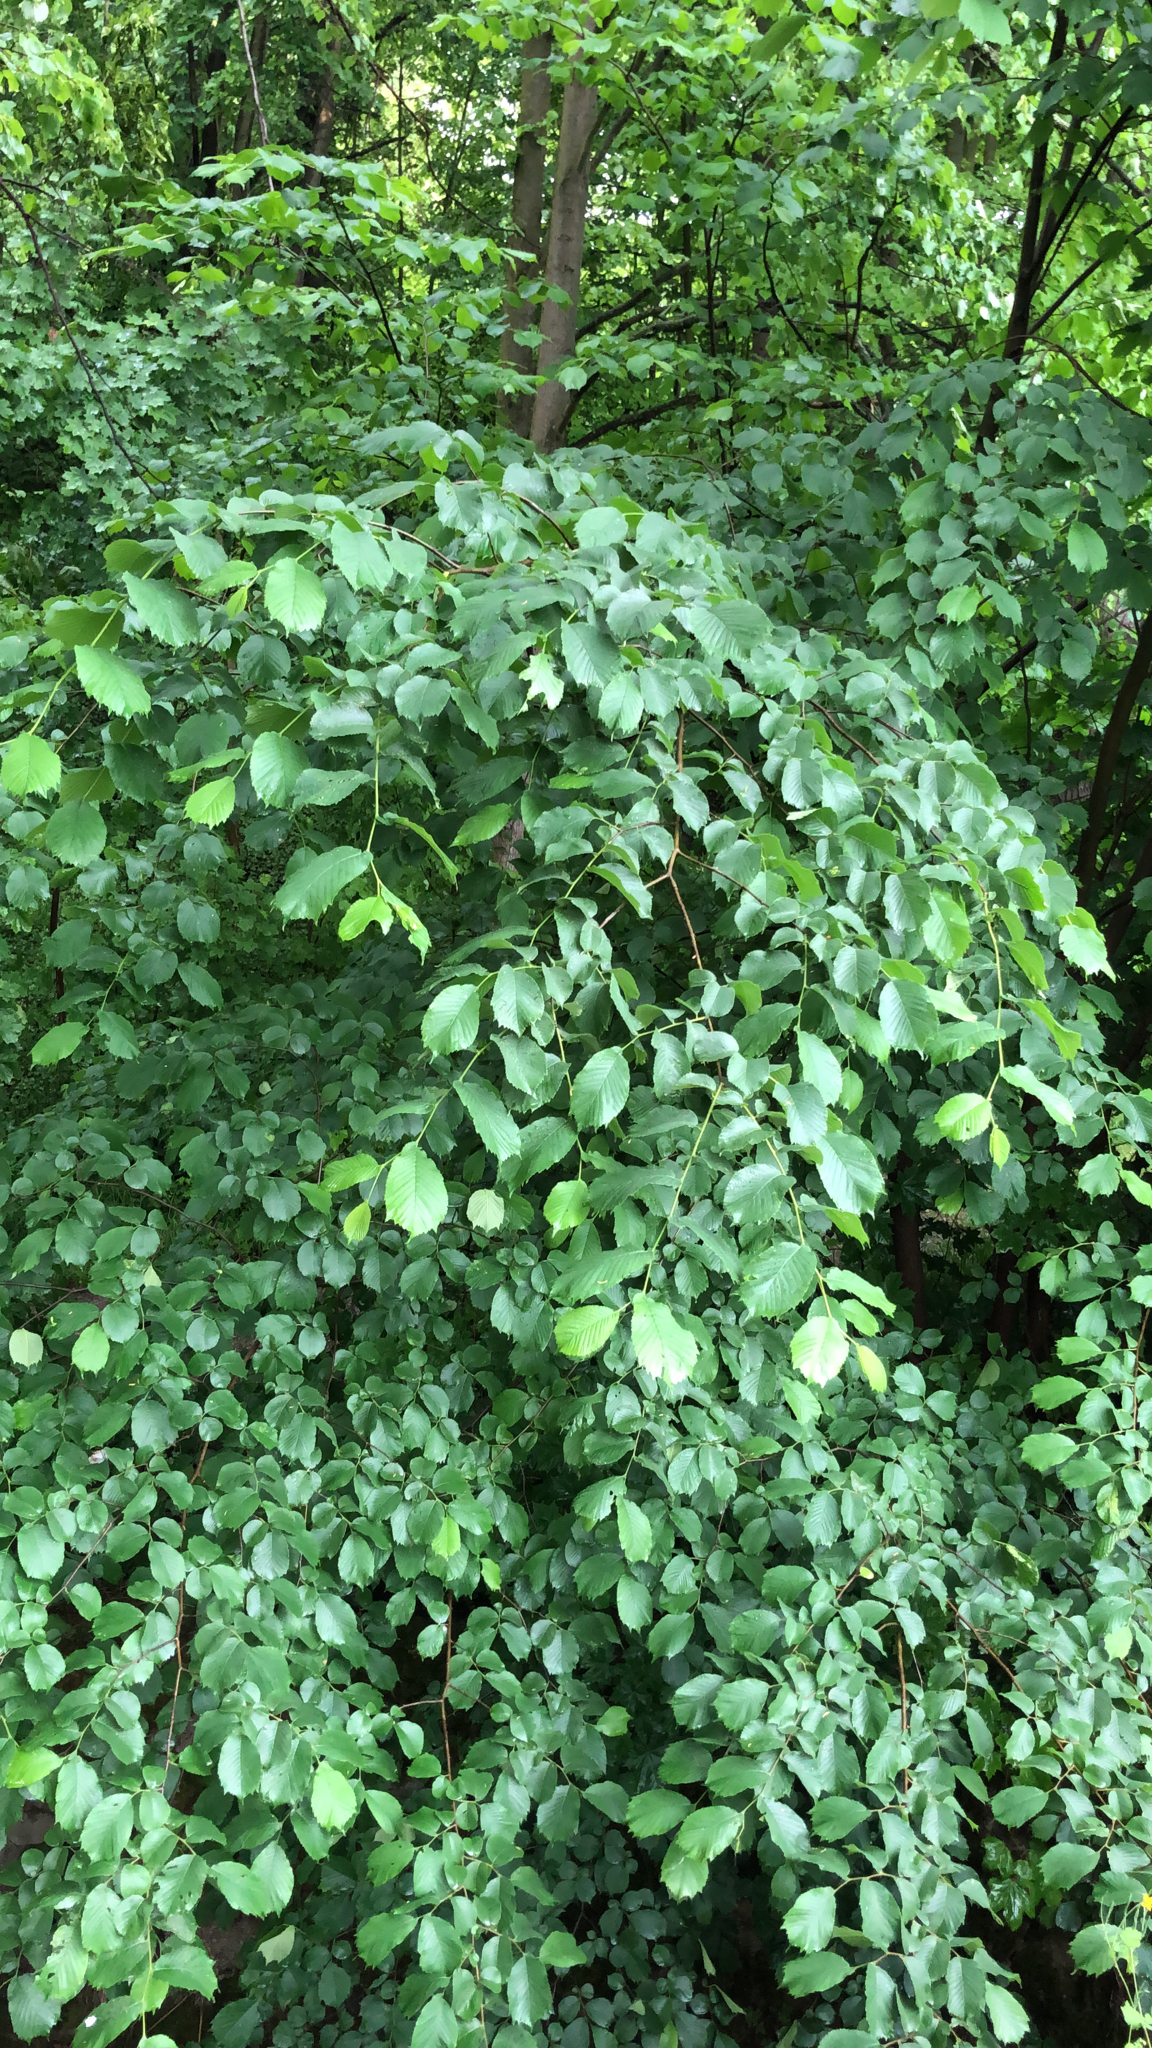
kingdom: Plantae
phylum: Tracheophyta
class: Magnoliopsida
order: Rosales
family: Ulmaceae
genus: Ulmus
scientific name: Ulmus glabra
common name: Wych elm
